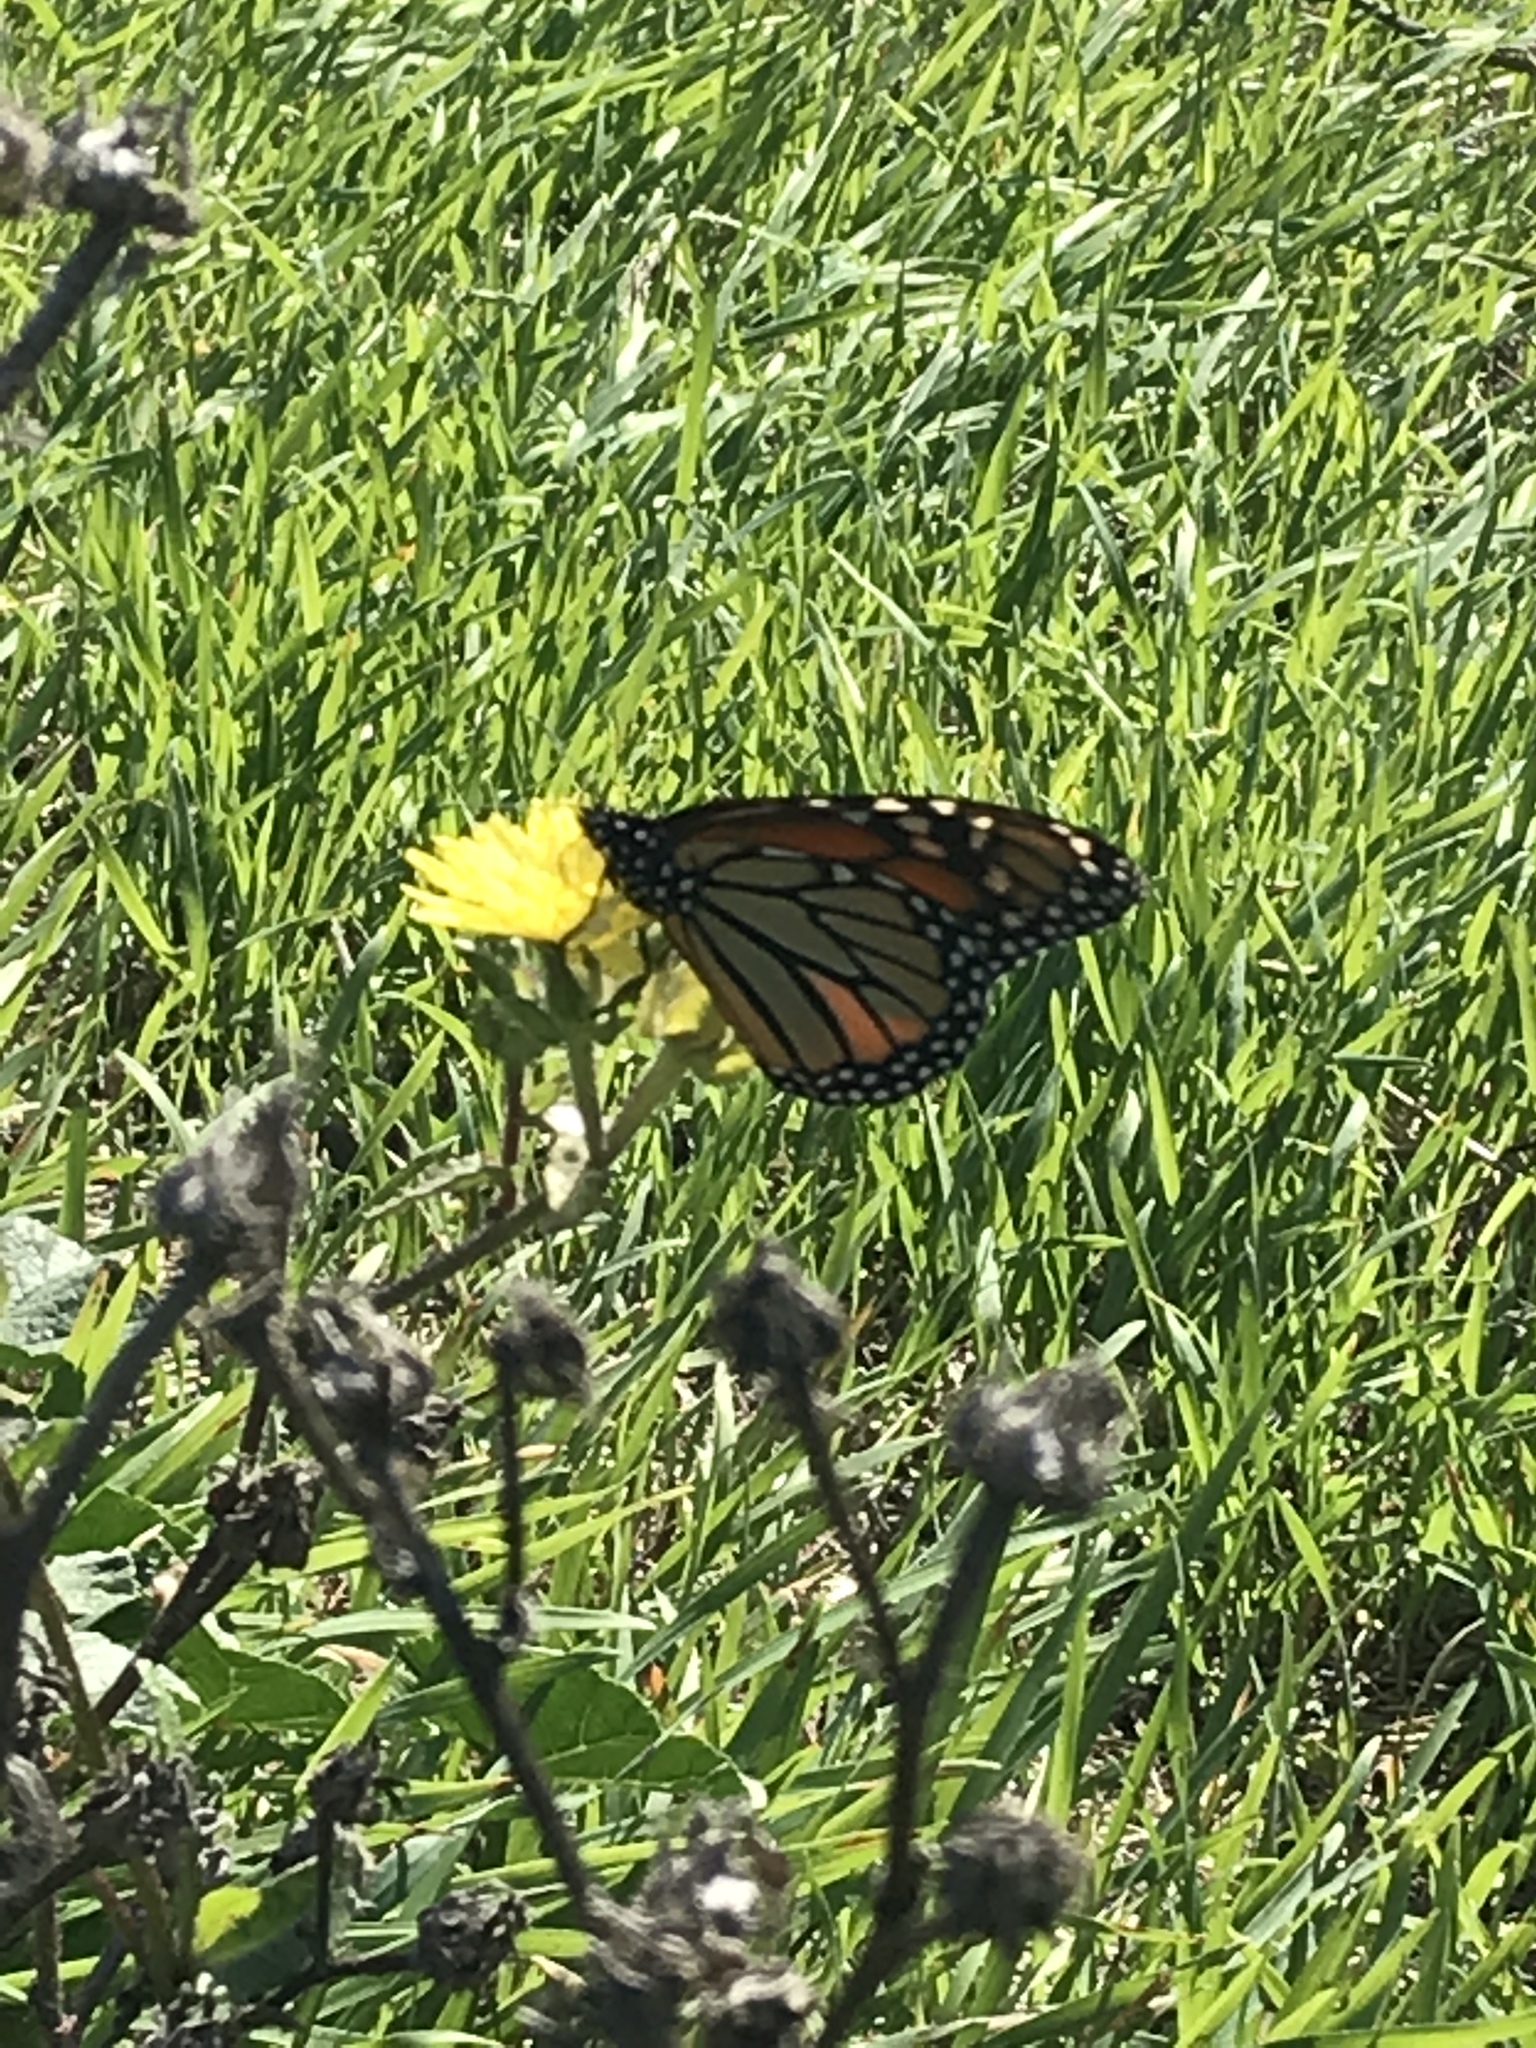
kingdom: Animalia
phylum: Arthropoda
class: Insecta
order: Lepidoptera
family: Nymphalidae
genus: Danaus
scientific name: Danaus plexippus
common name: Monarch
